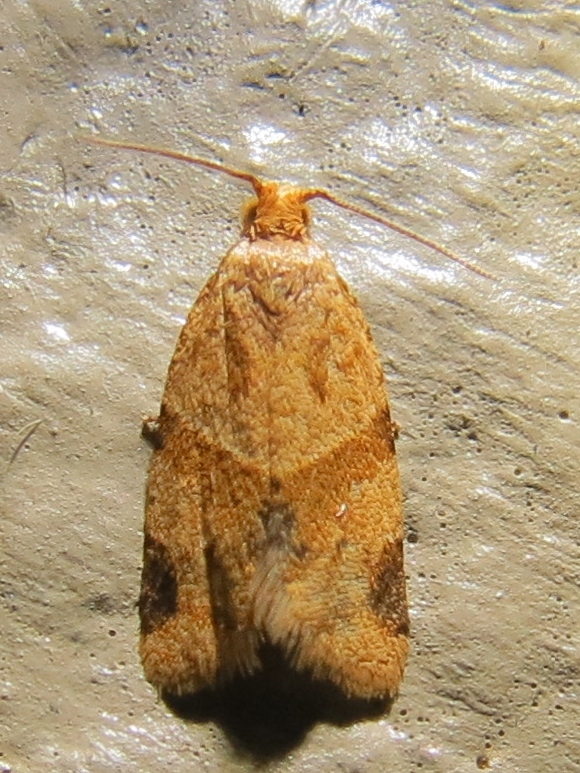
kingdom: Animalia
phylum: Arthropoda
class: Insecta
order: Lepidoptera
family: Tortricidae
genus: Clepsis
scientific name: Clepsis peritana
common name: Garden tortrix
